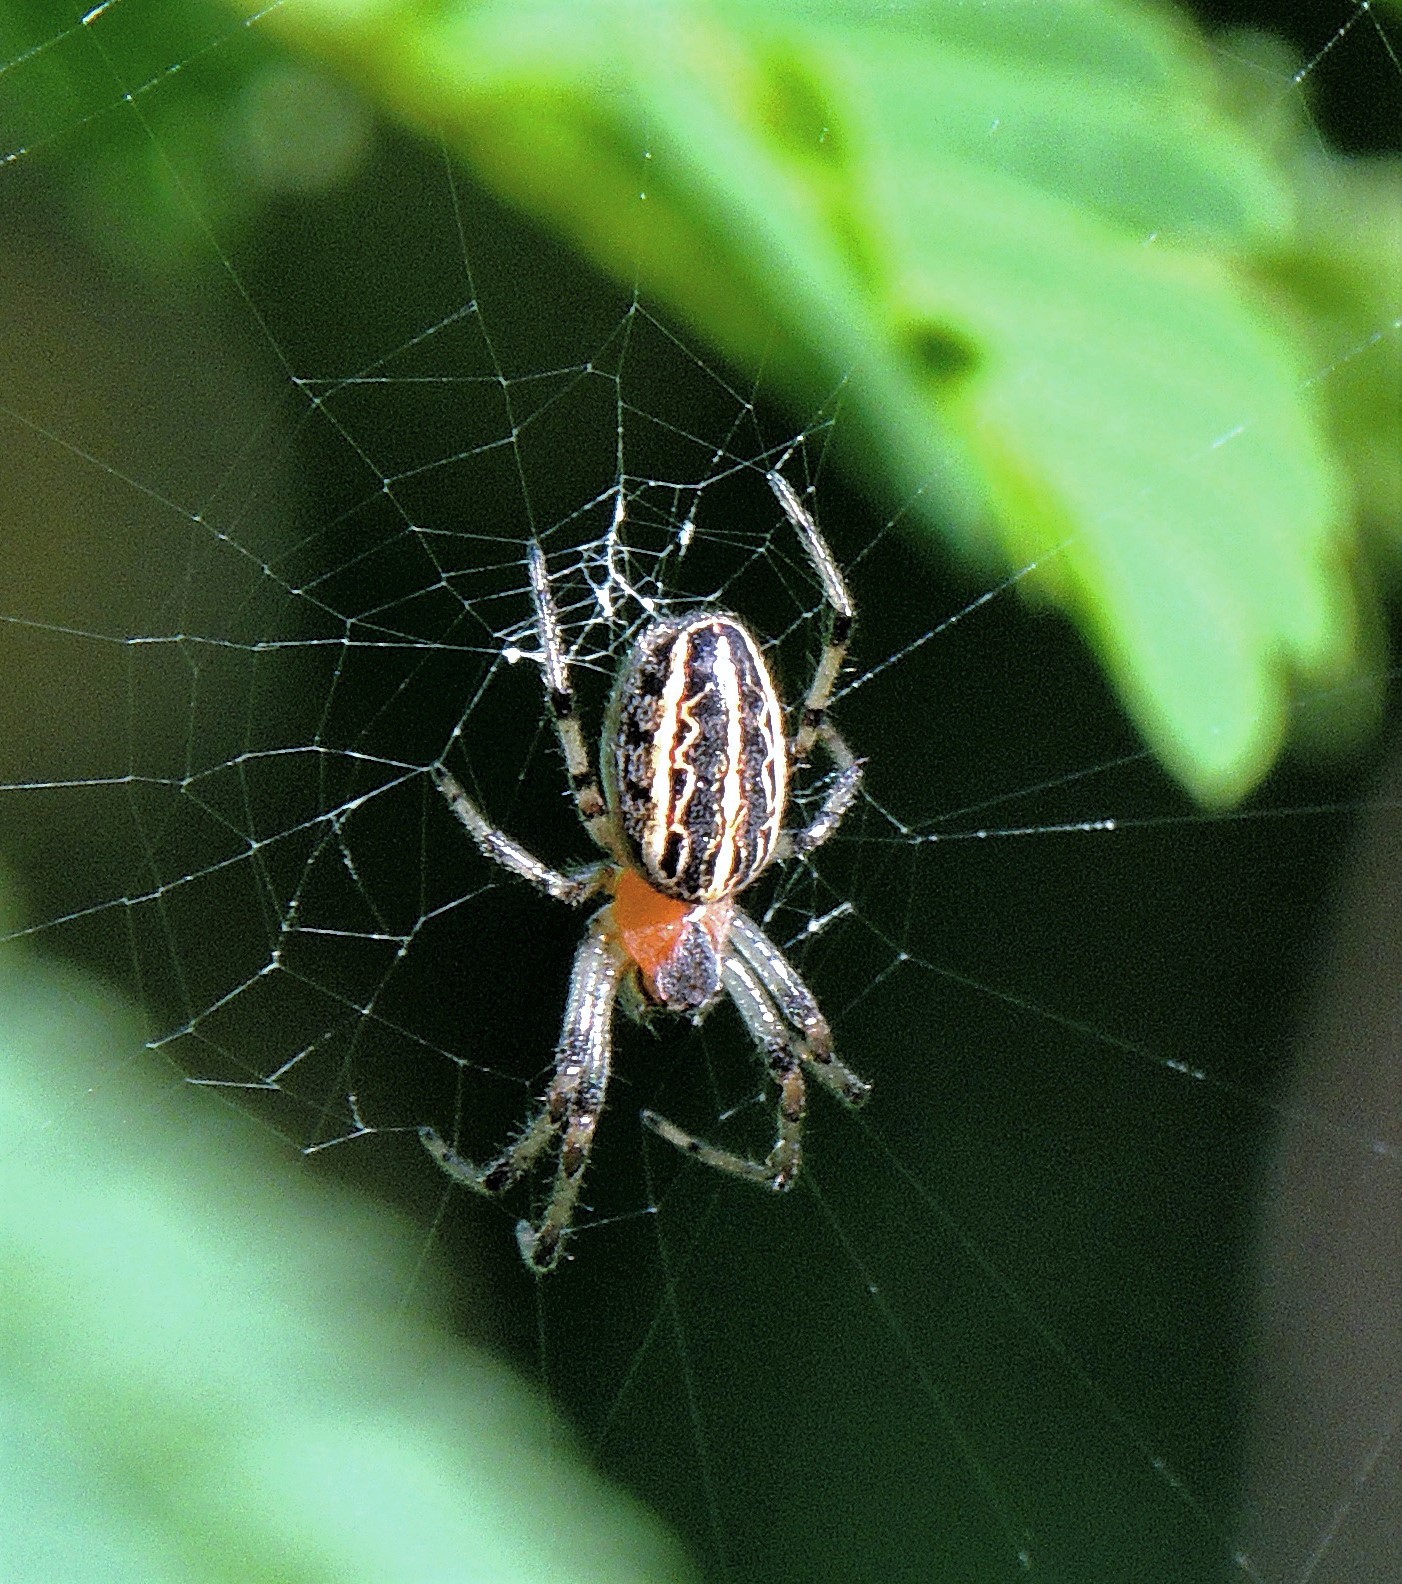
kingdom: Animalia
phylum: Arthropoda
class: Arachnida
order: Araneae
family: Araneidae
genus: Alpaida
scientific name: Alpaida veniliae
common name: Orb weavers
